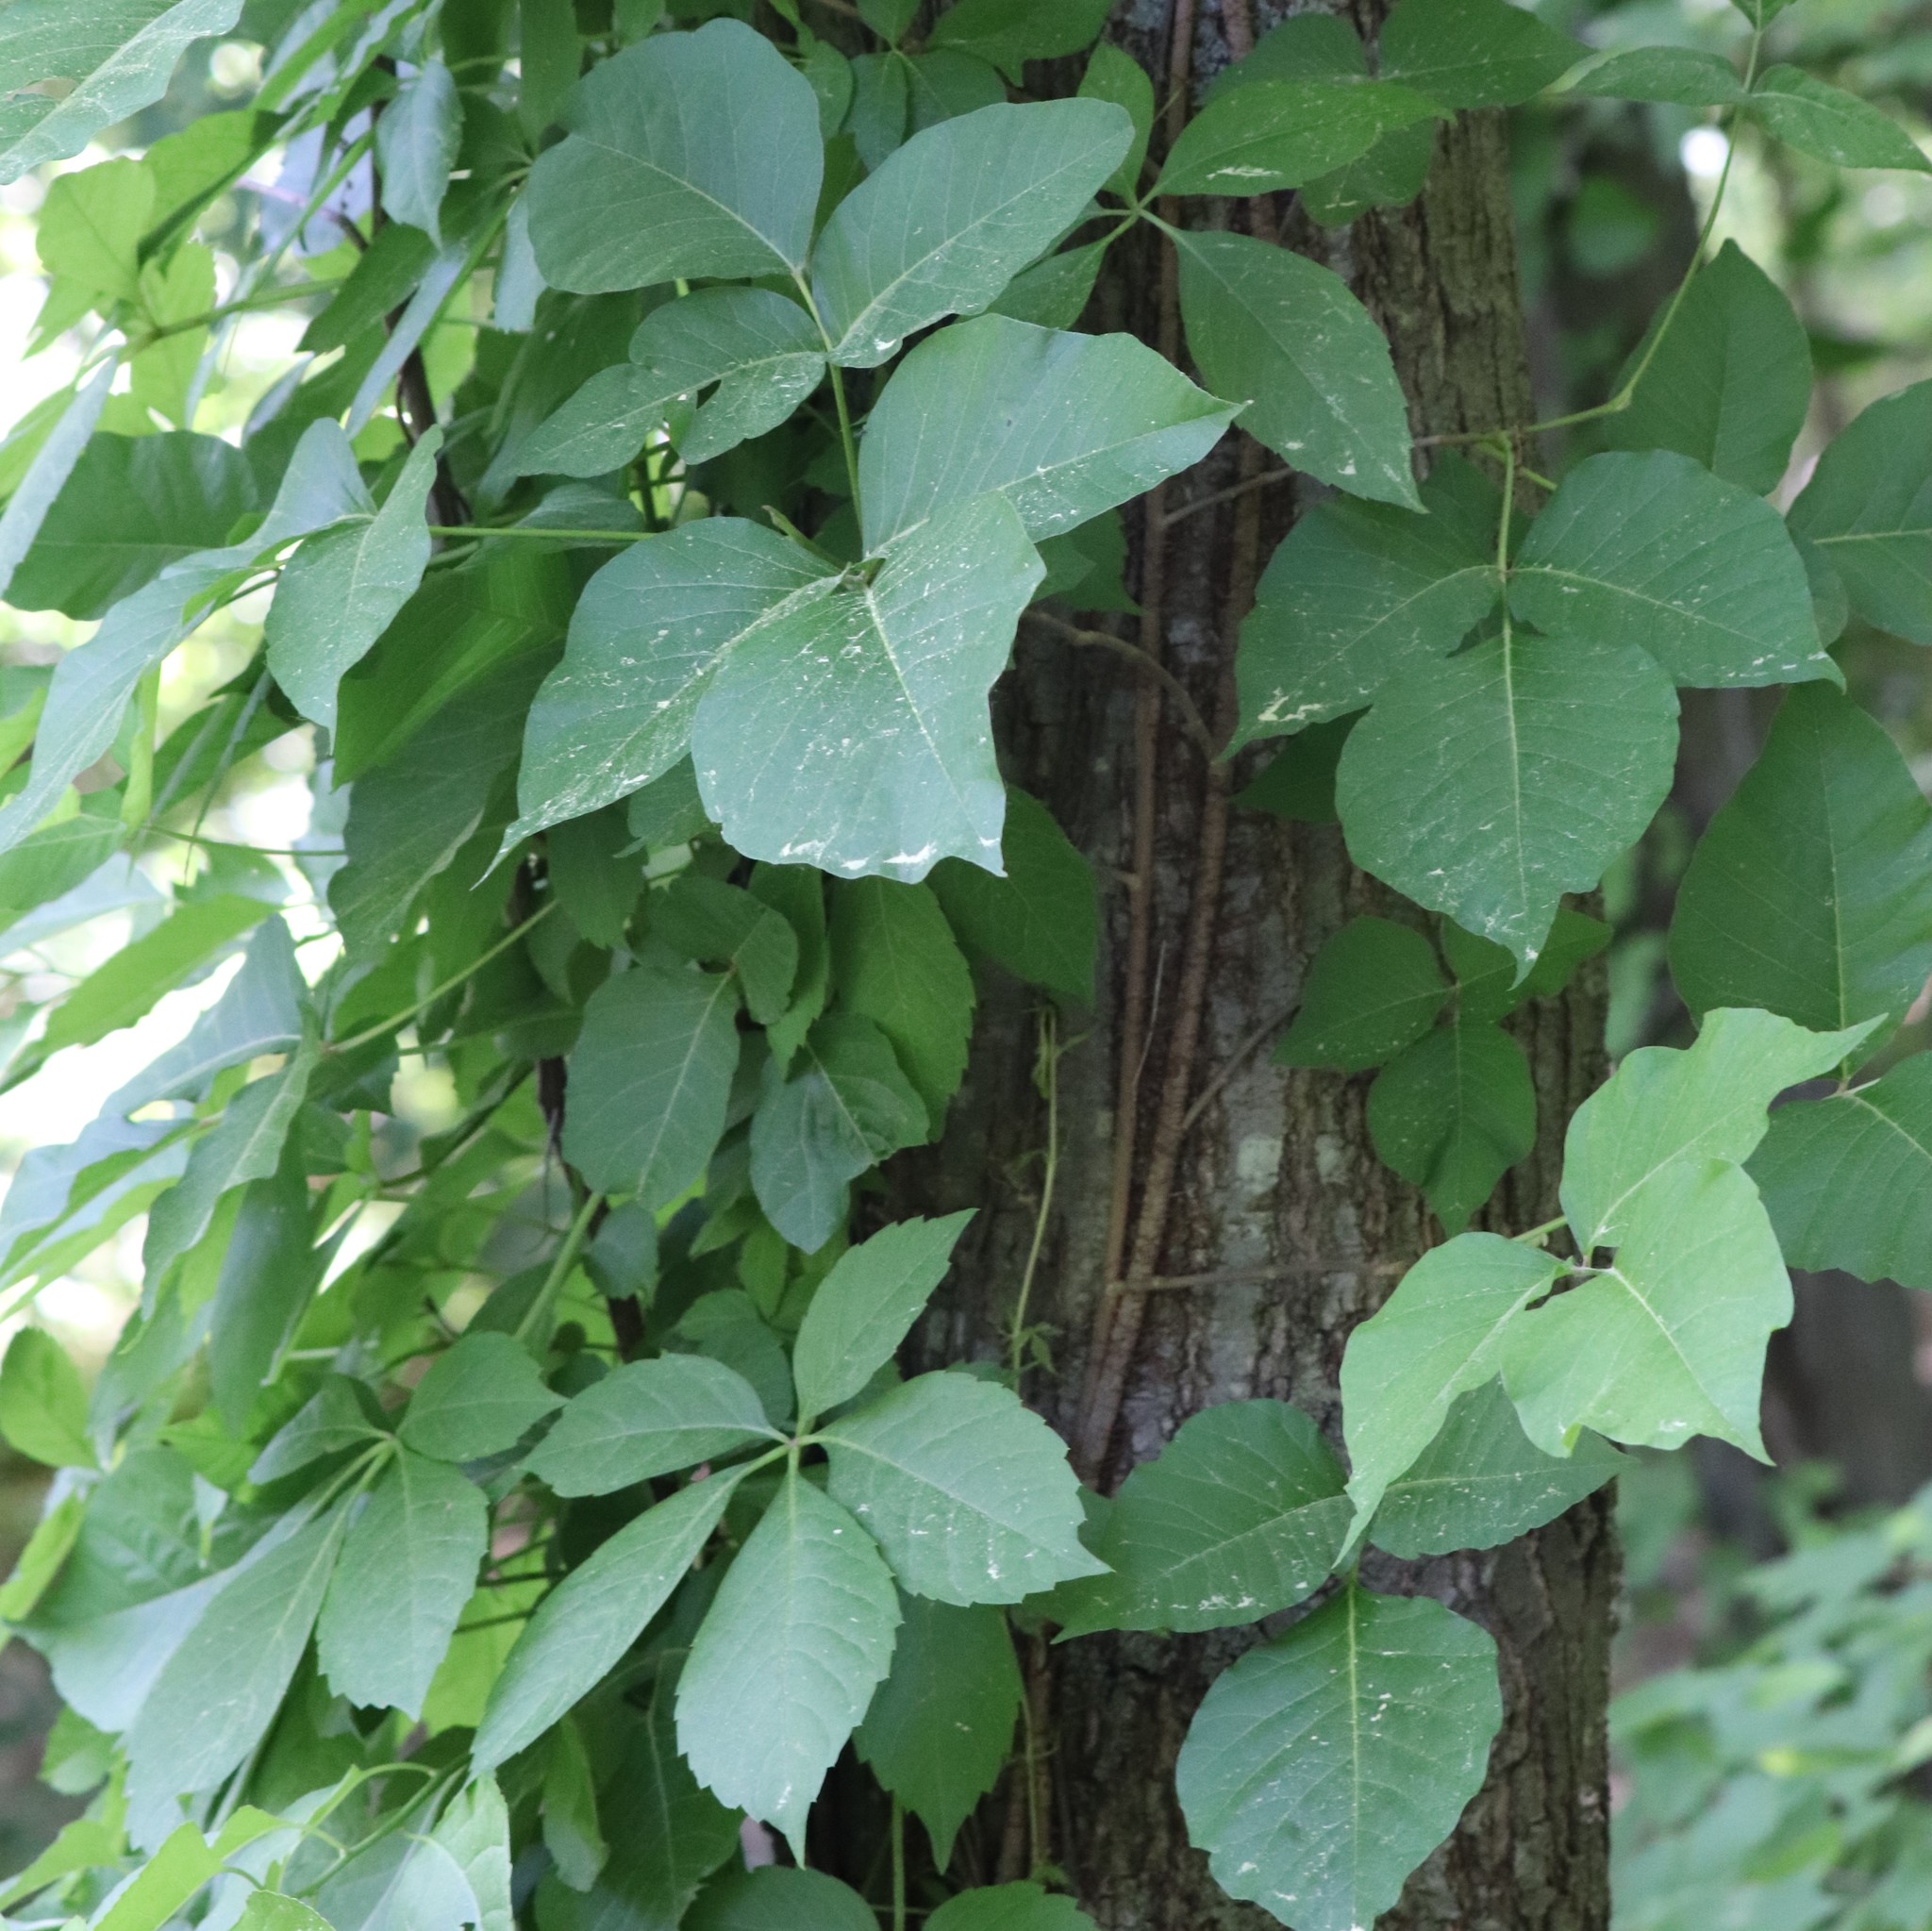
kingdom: Plantae
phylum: Tracheophyta
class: Magnoliopsida
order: Sapindales
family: Anacardiaceae
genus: Toxicodendron
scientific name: Toxicodendron radicans
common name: Poison ivy
